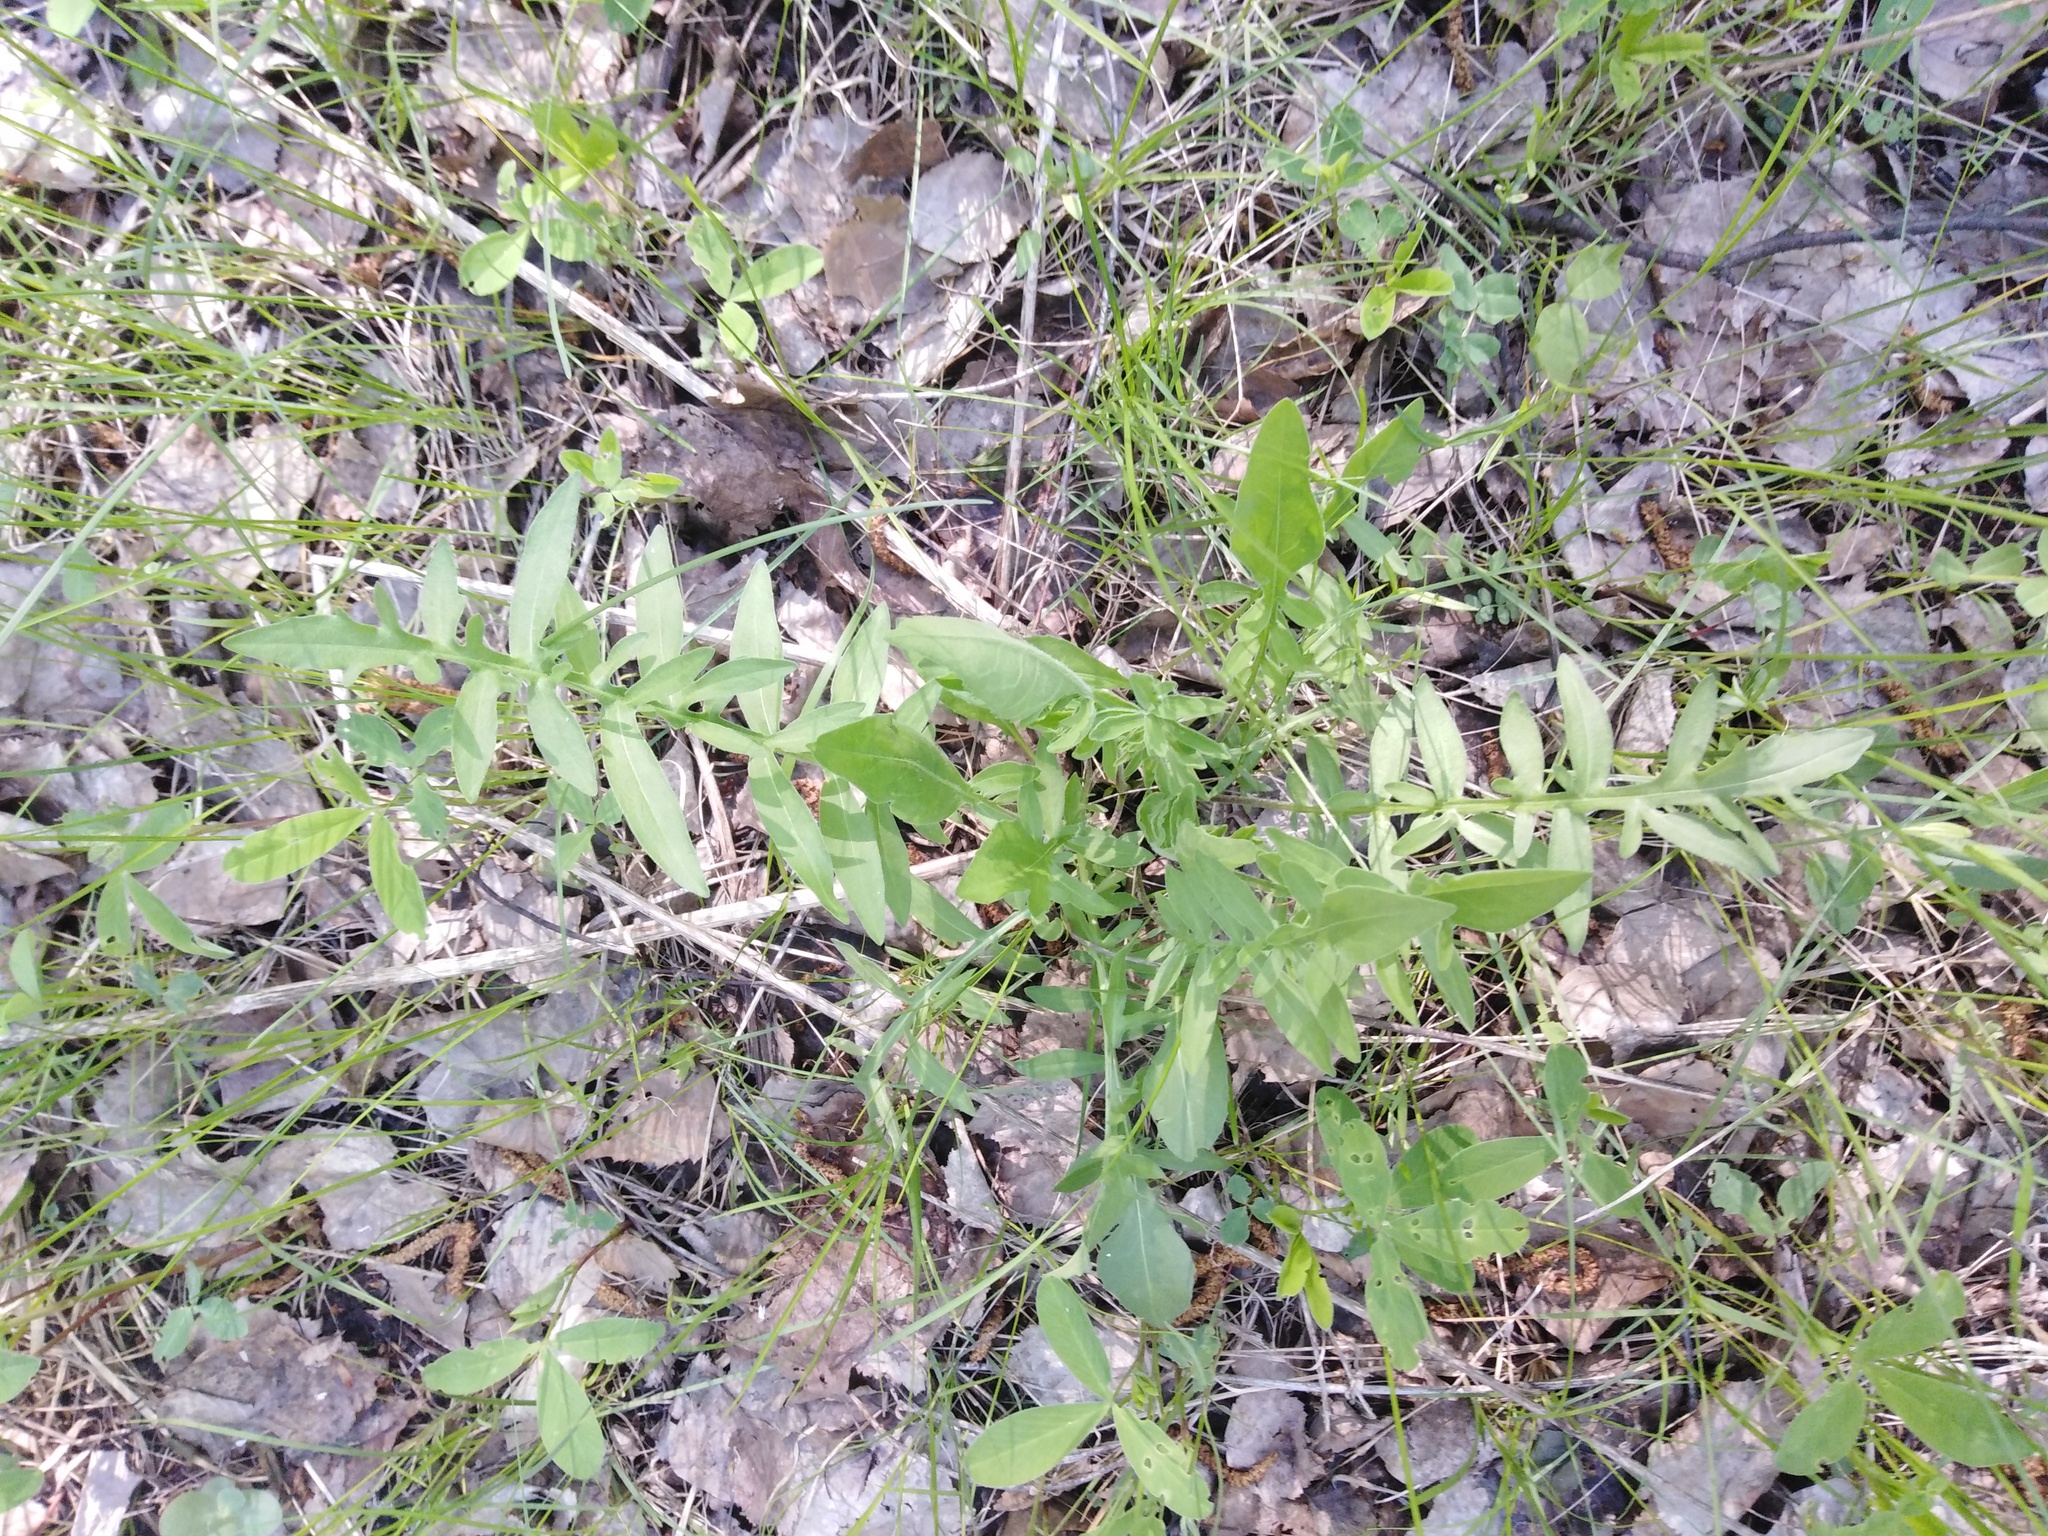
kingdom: Plantae
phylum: Tracheophyta
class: Magnoliopsida
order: Asterales
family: Asteraceae
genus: Centaurea
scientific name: Centaurea scabiosa
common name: Greater knapweed
